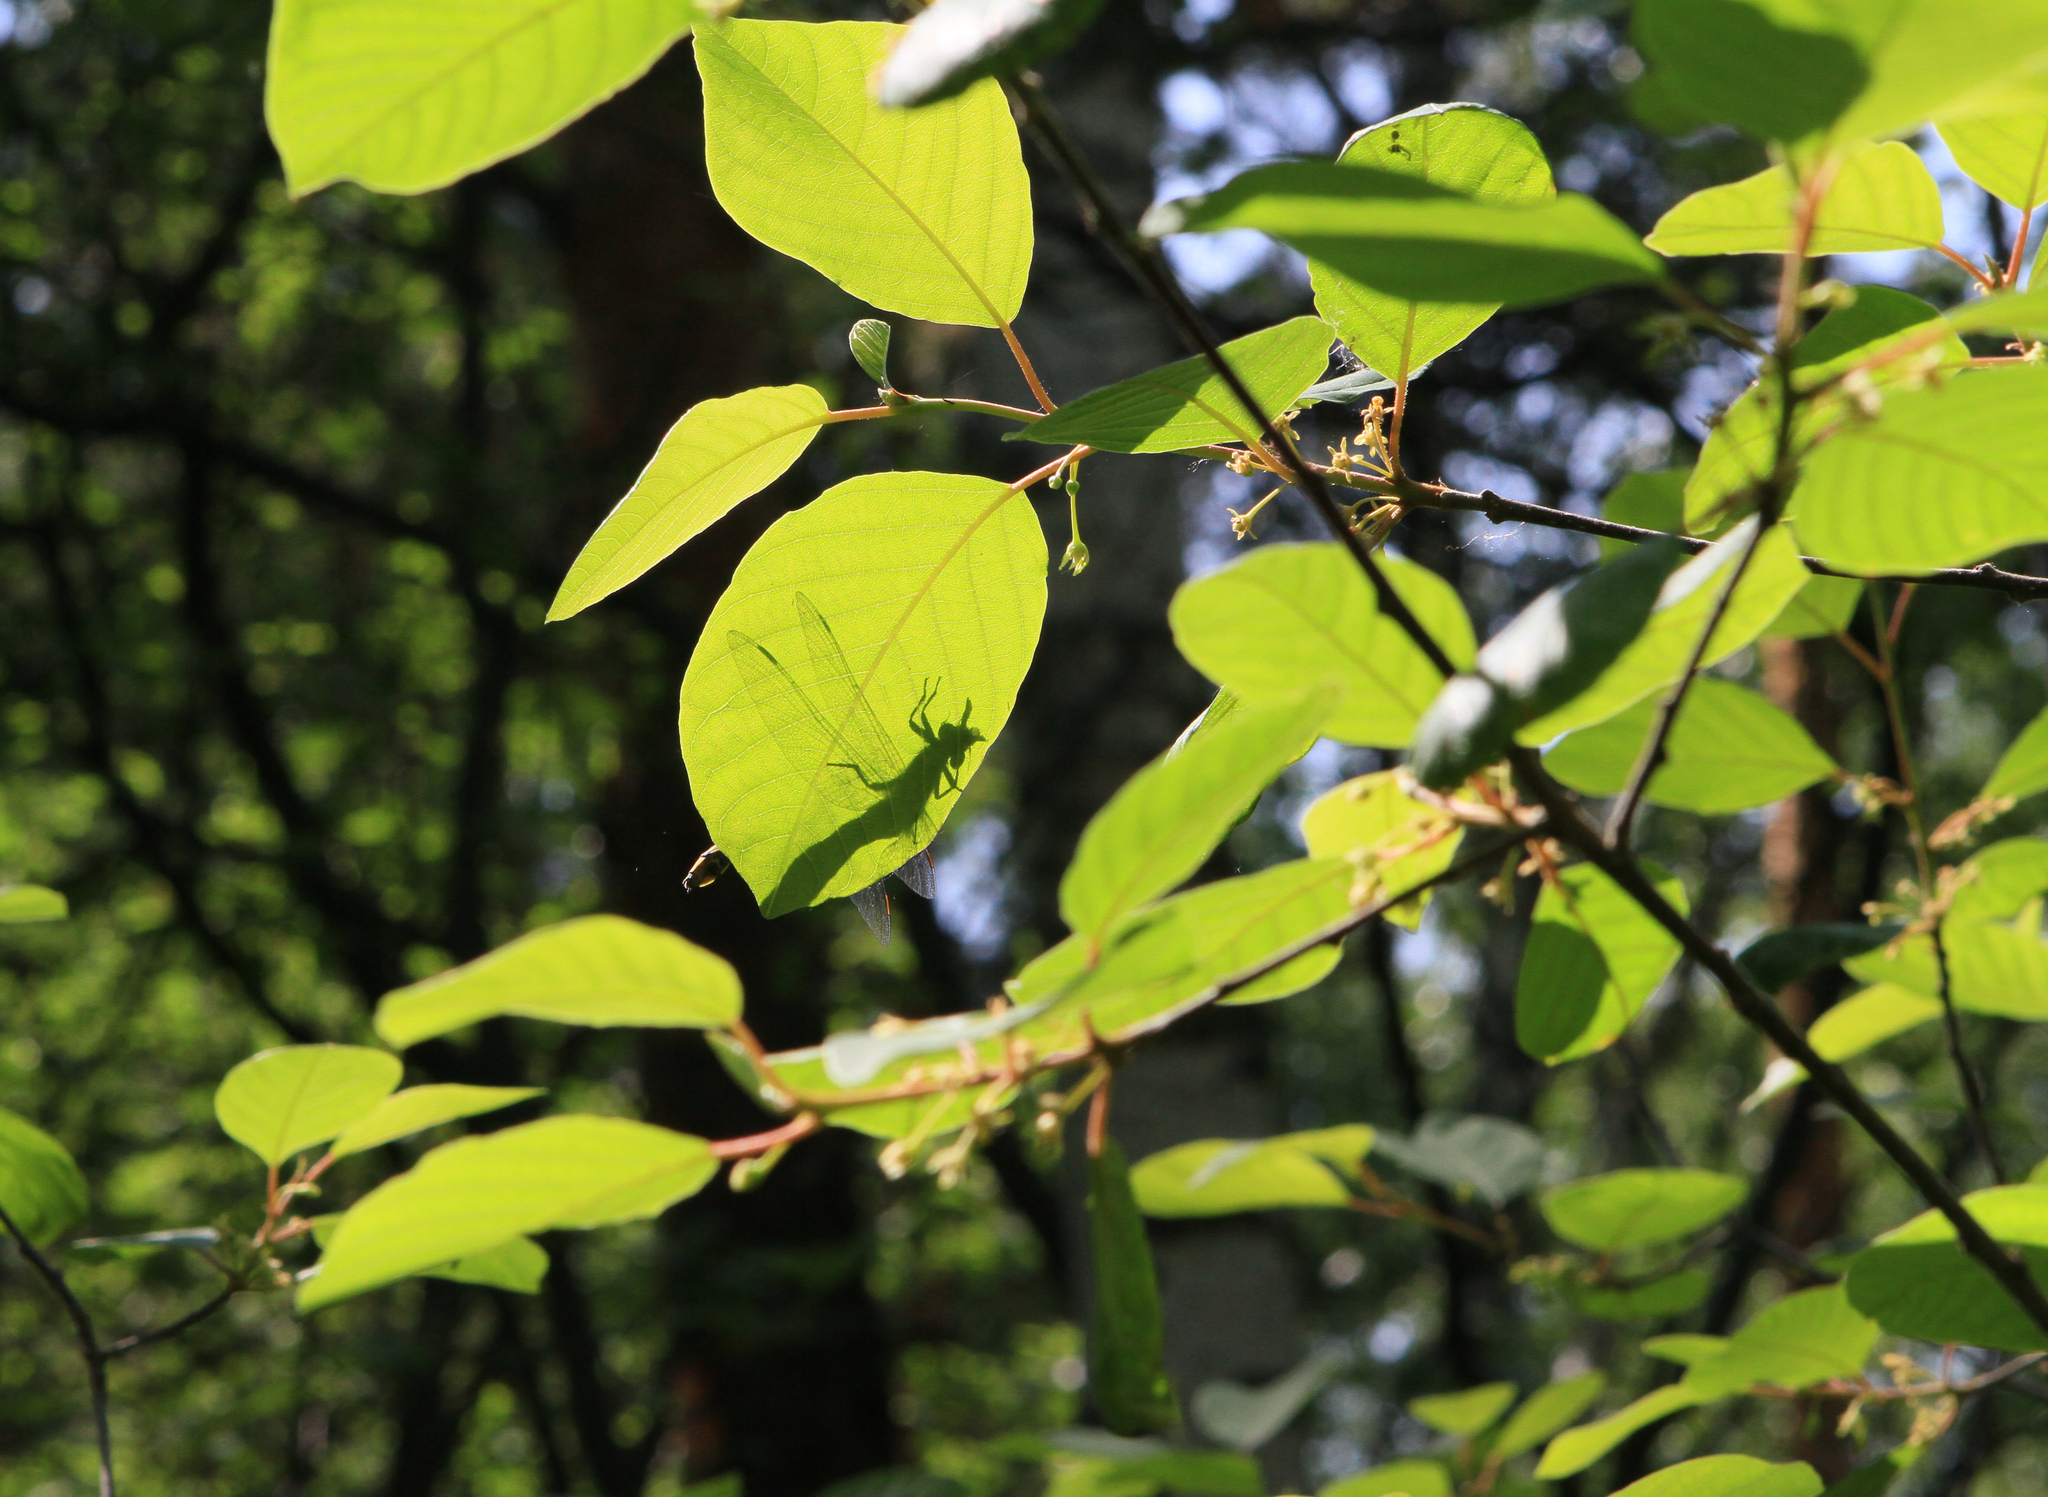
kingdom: Plantae
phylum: Tracheophyta
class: Magnoliopsida
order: Rosales
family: Rhamnaceae
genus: Frangula
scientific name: Frangula alnus
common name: Alder buckthorn
